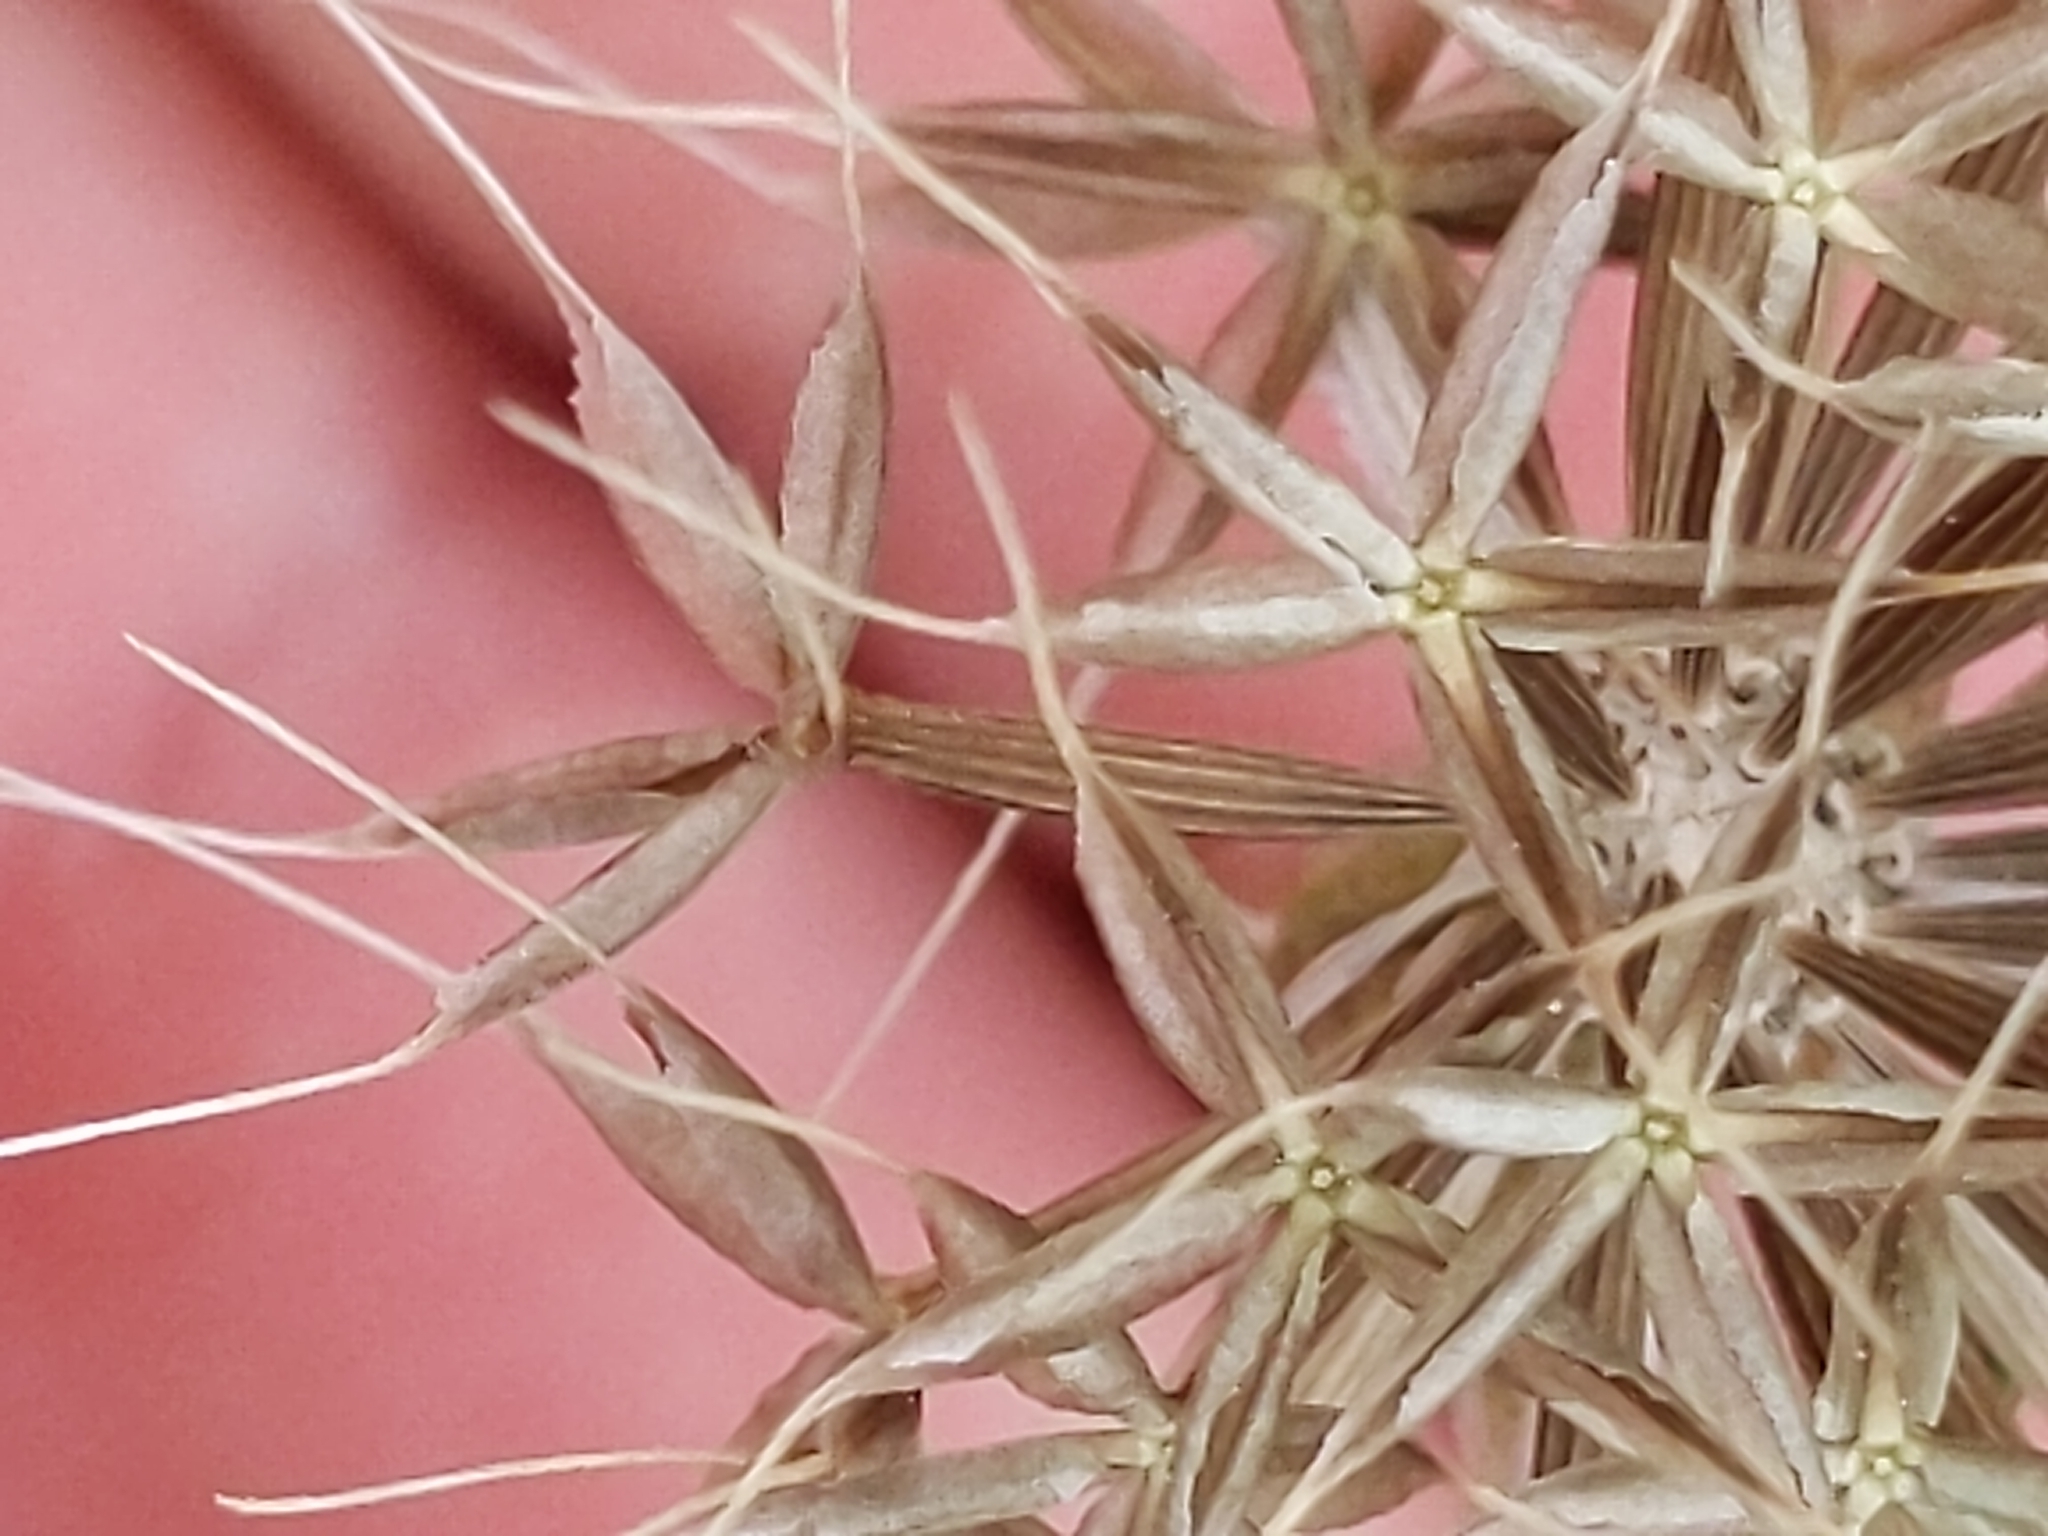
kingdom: Plantae
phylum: Tracheophyta
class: Magnoliopsida
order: Asterales
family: Asteraceae
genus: Microseris
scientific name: Microseris douglasii
